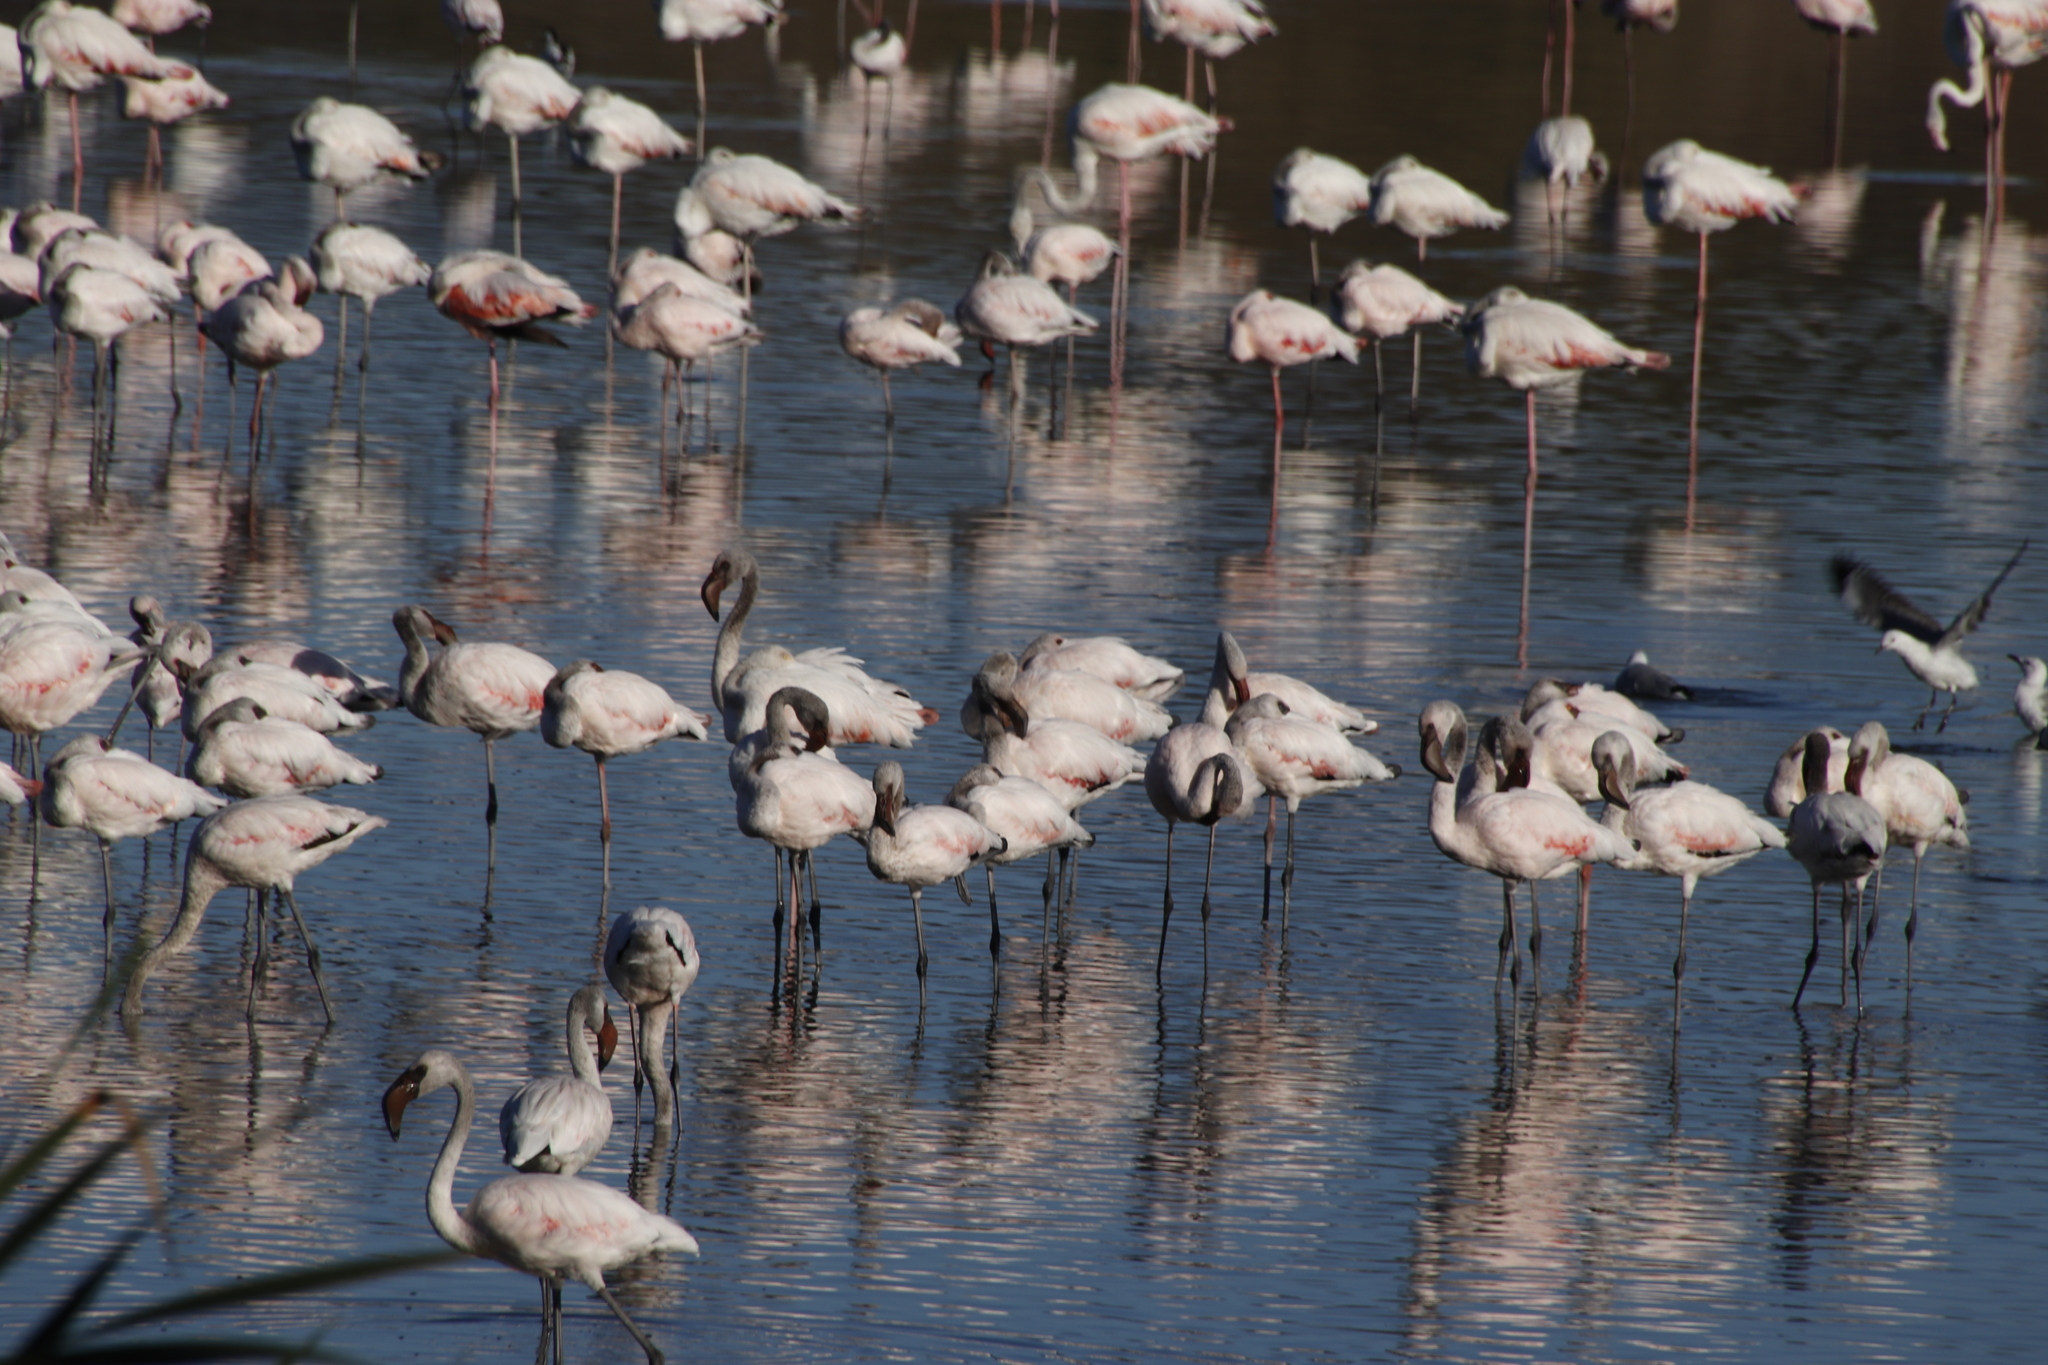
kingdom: Animalia
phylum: Chordata
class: Aves
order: Phoenicopteriformes
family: Phoenicopteridae
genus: Phoeniconaias
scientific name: Phoeniconaias minor
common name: Lesser flamingo
